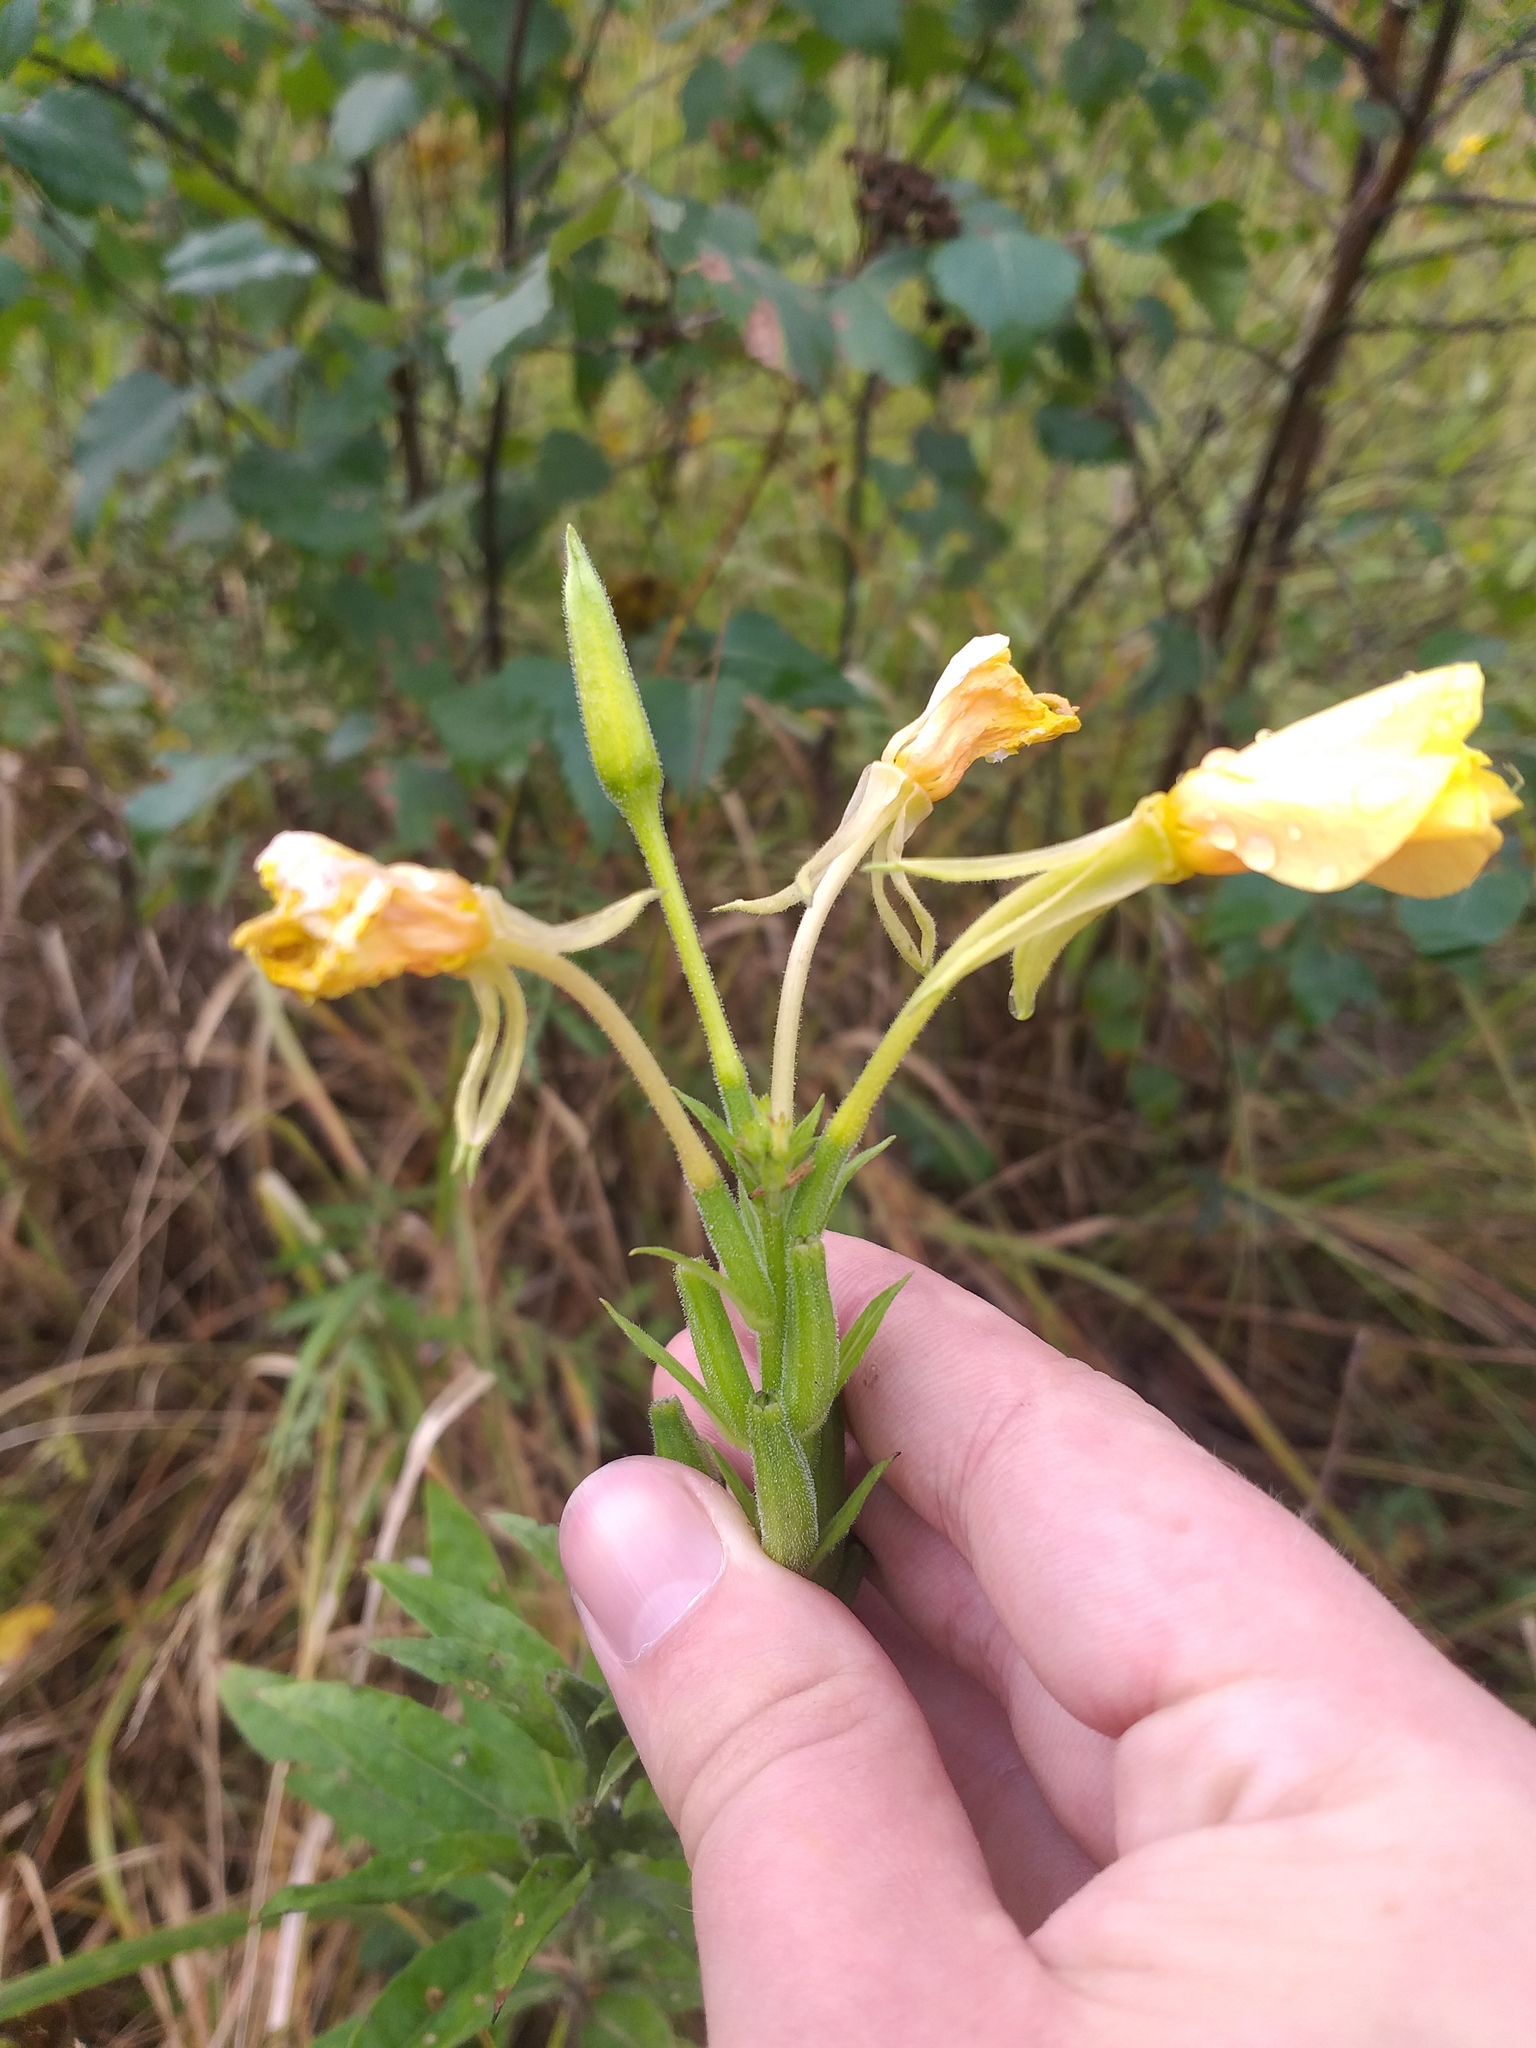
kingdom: Plantae
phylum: Tracheophyta
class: Magnoliopsida
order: Myrtales
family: Onagraceae
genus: Oenothera
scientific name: Oenothera biennis
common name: Common evening-primrose
